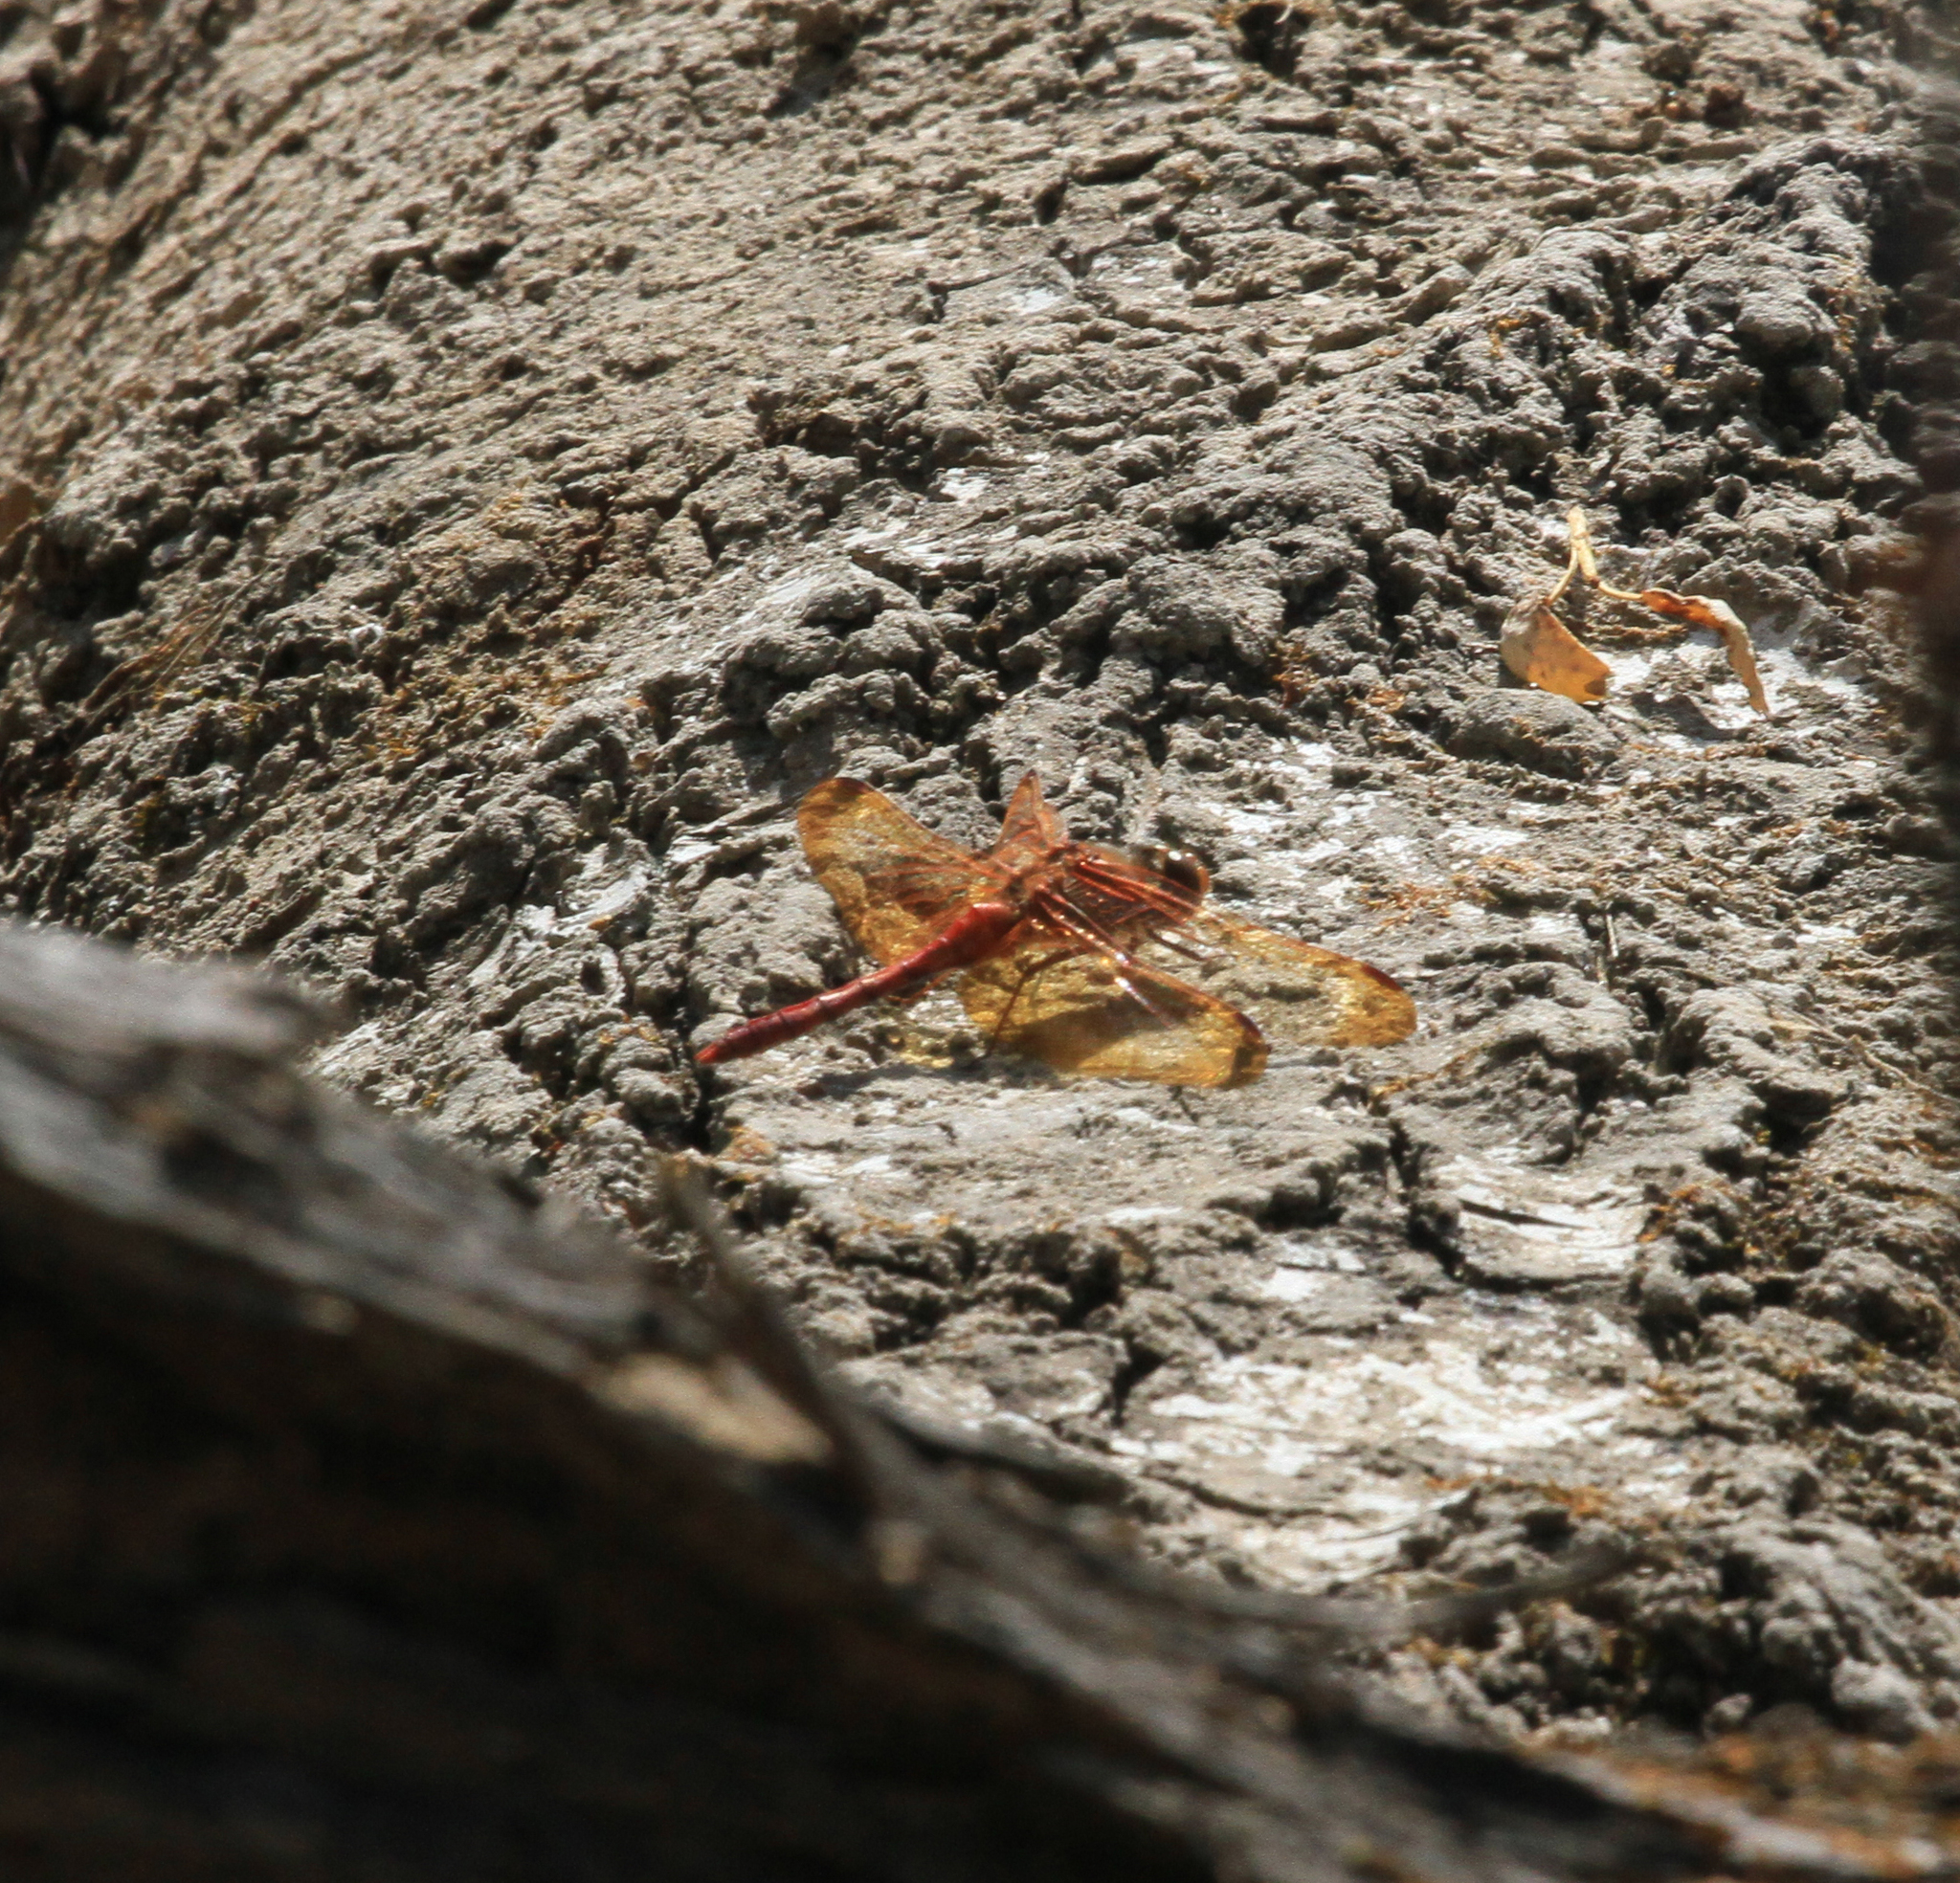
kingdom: Animalia
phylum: Arthropoda
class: Insecta
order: Odonata
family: Libellulidae
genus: Sympetrum
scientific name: Sympetrum croceolum
